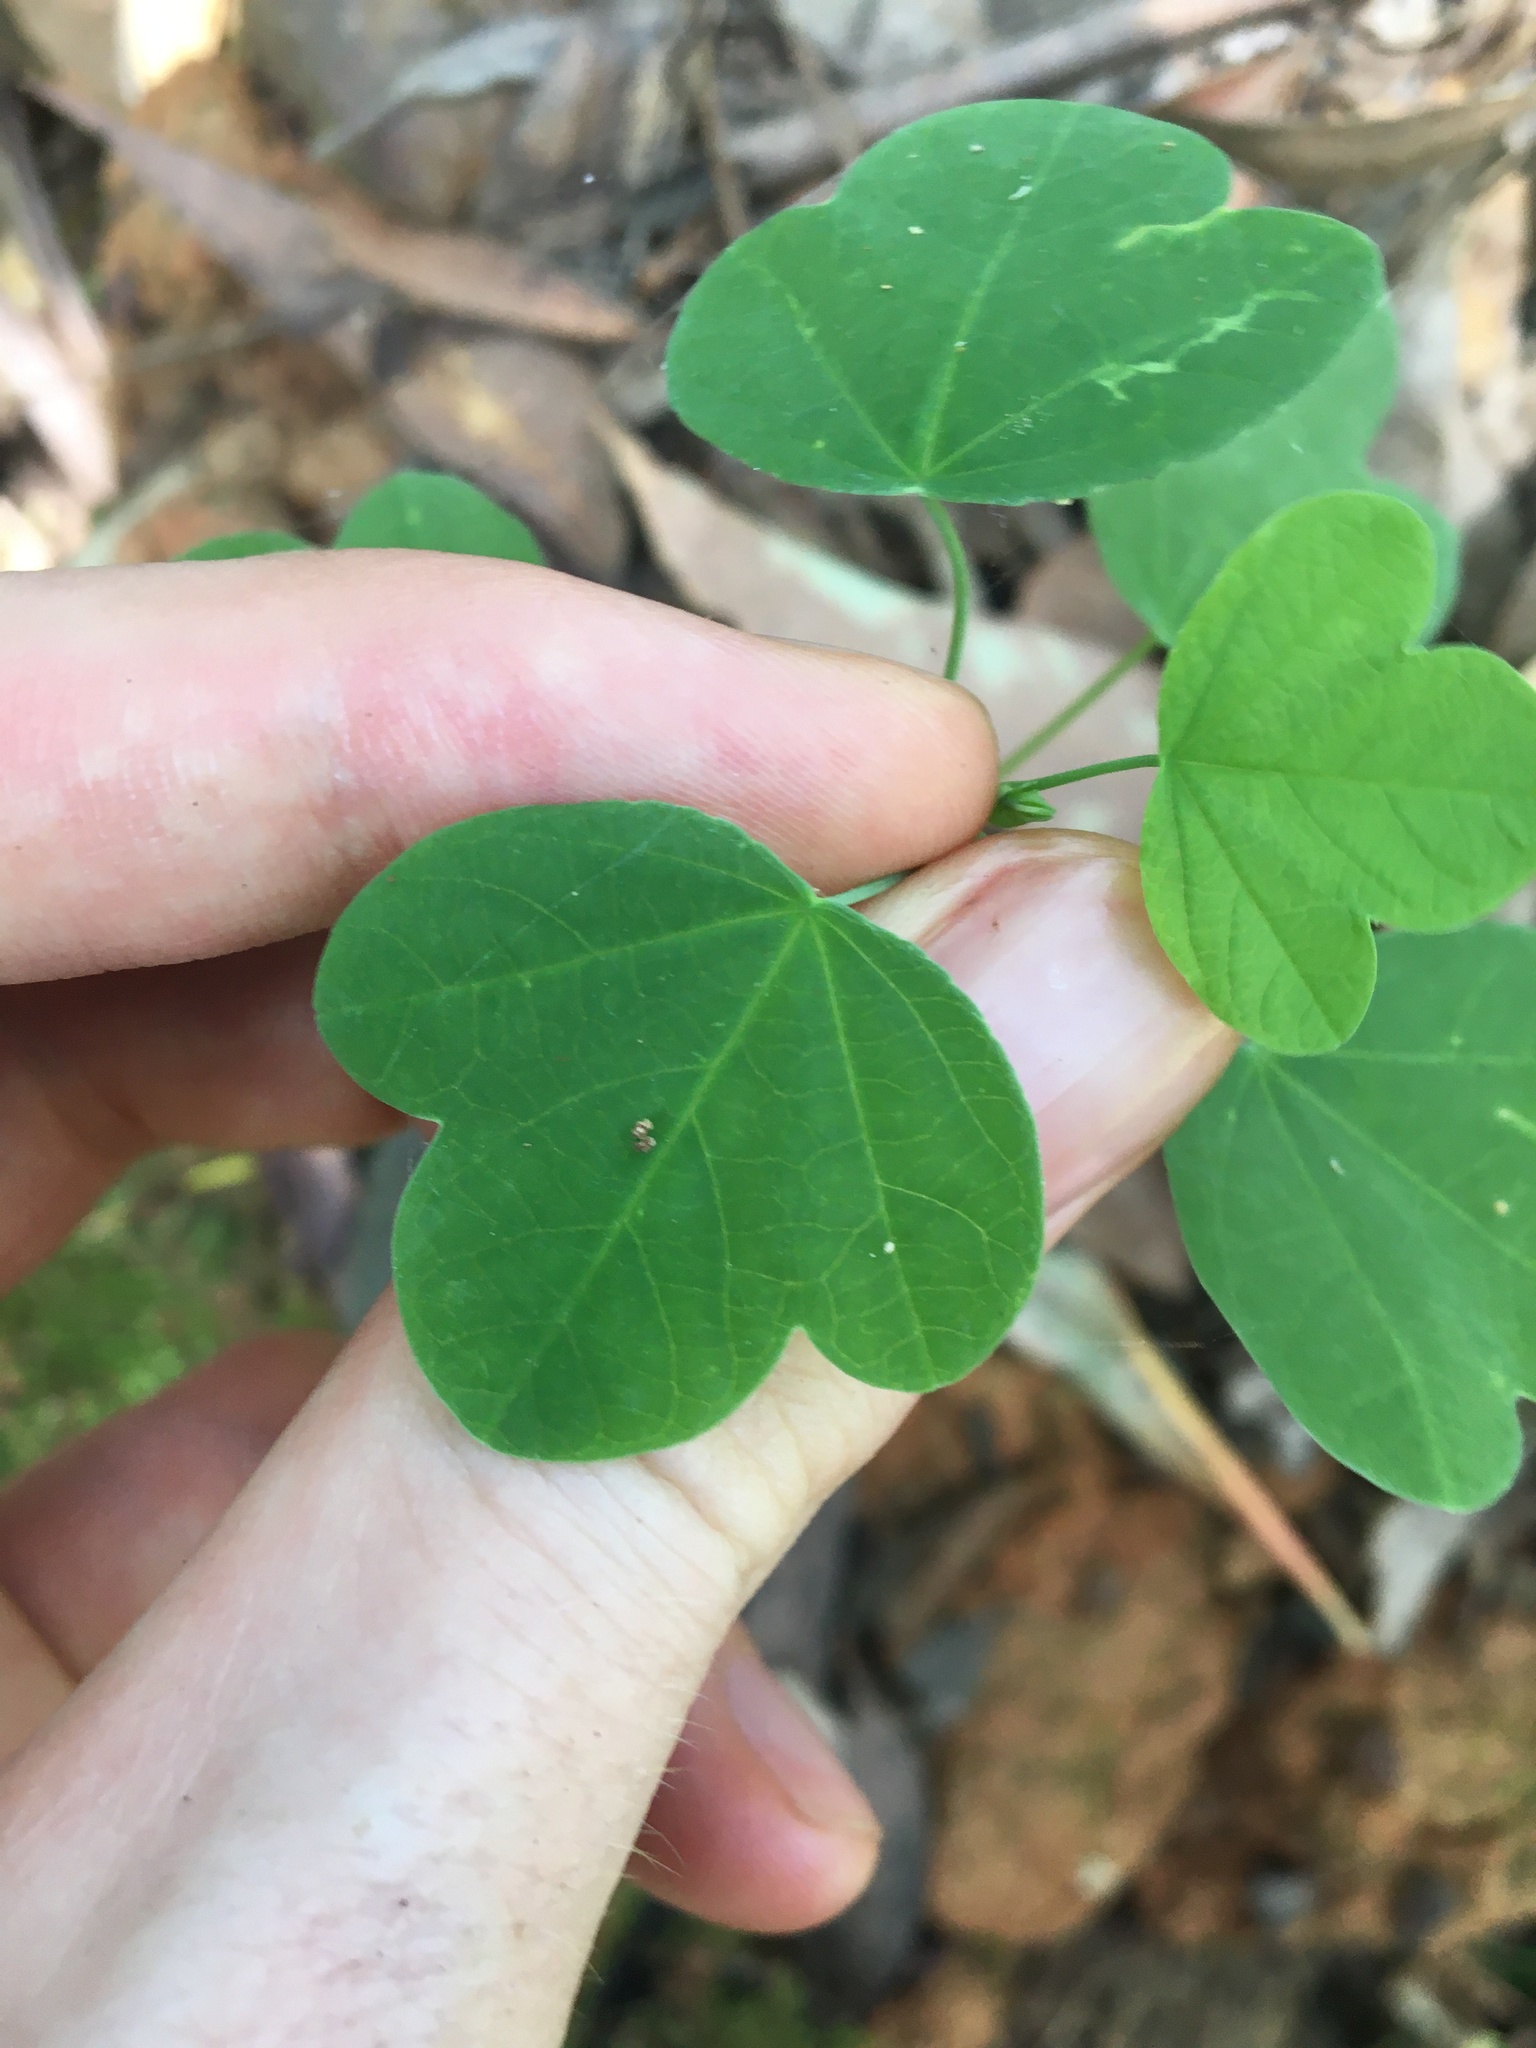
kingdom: Plantae
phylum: Tracheophyta
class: Magnoliopsida
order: Malpighiales
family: Passifloraceae
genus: Passiflora
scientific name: Passiflora subpeltata
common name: White passionflower
